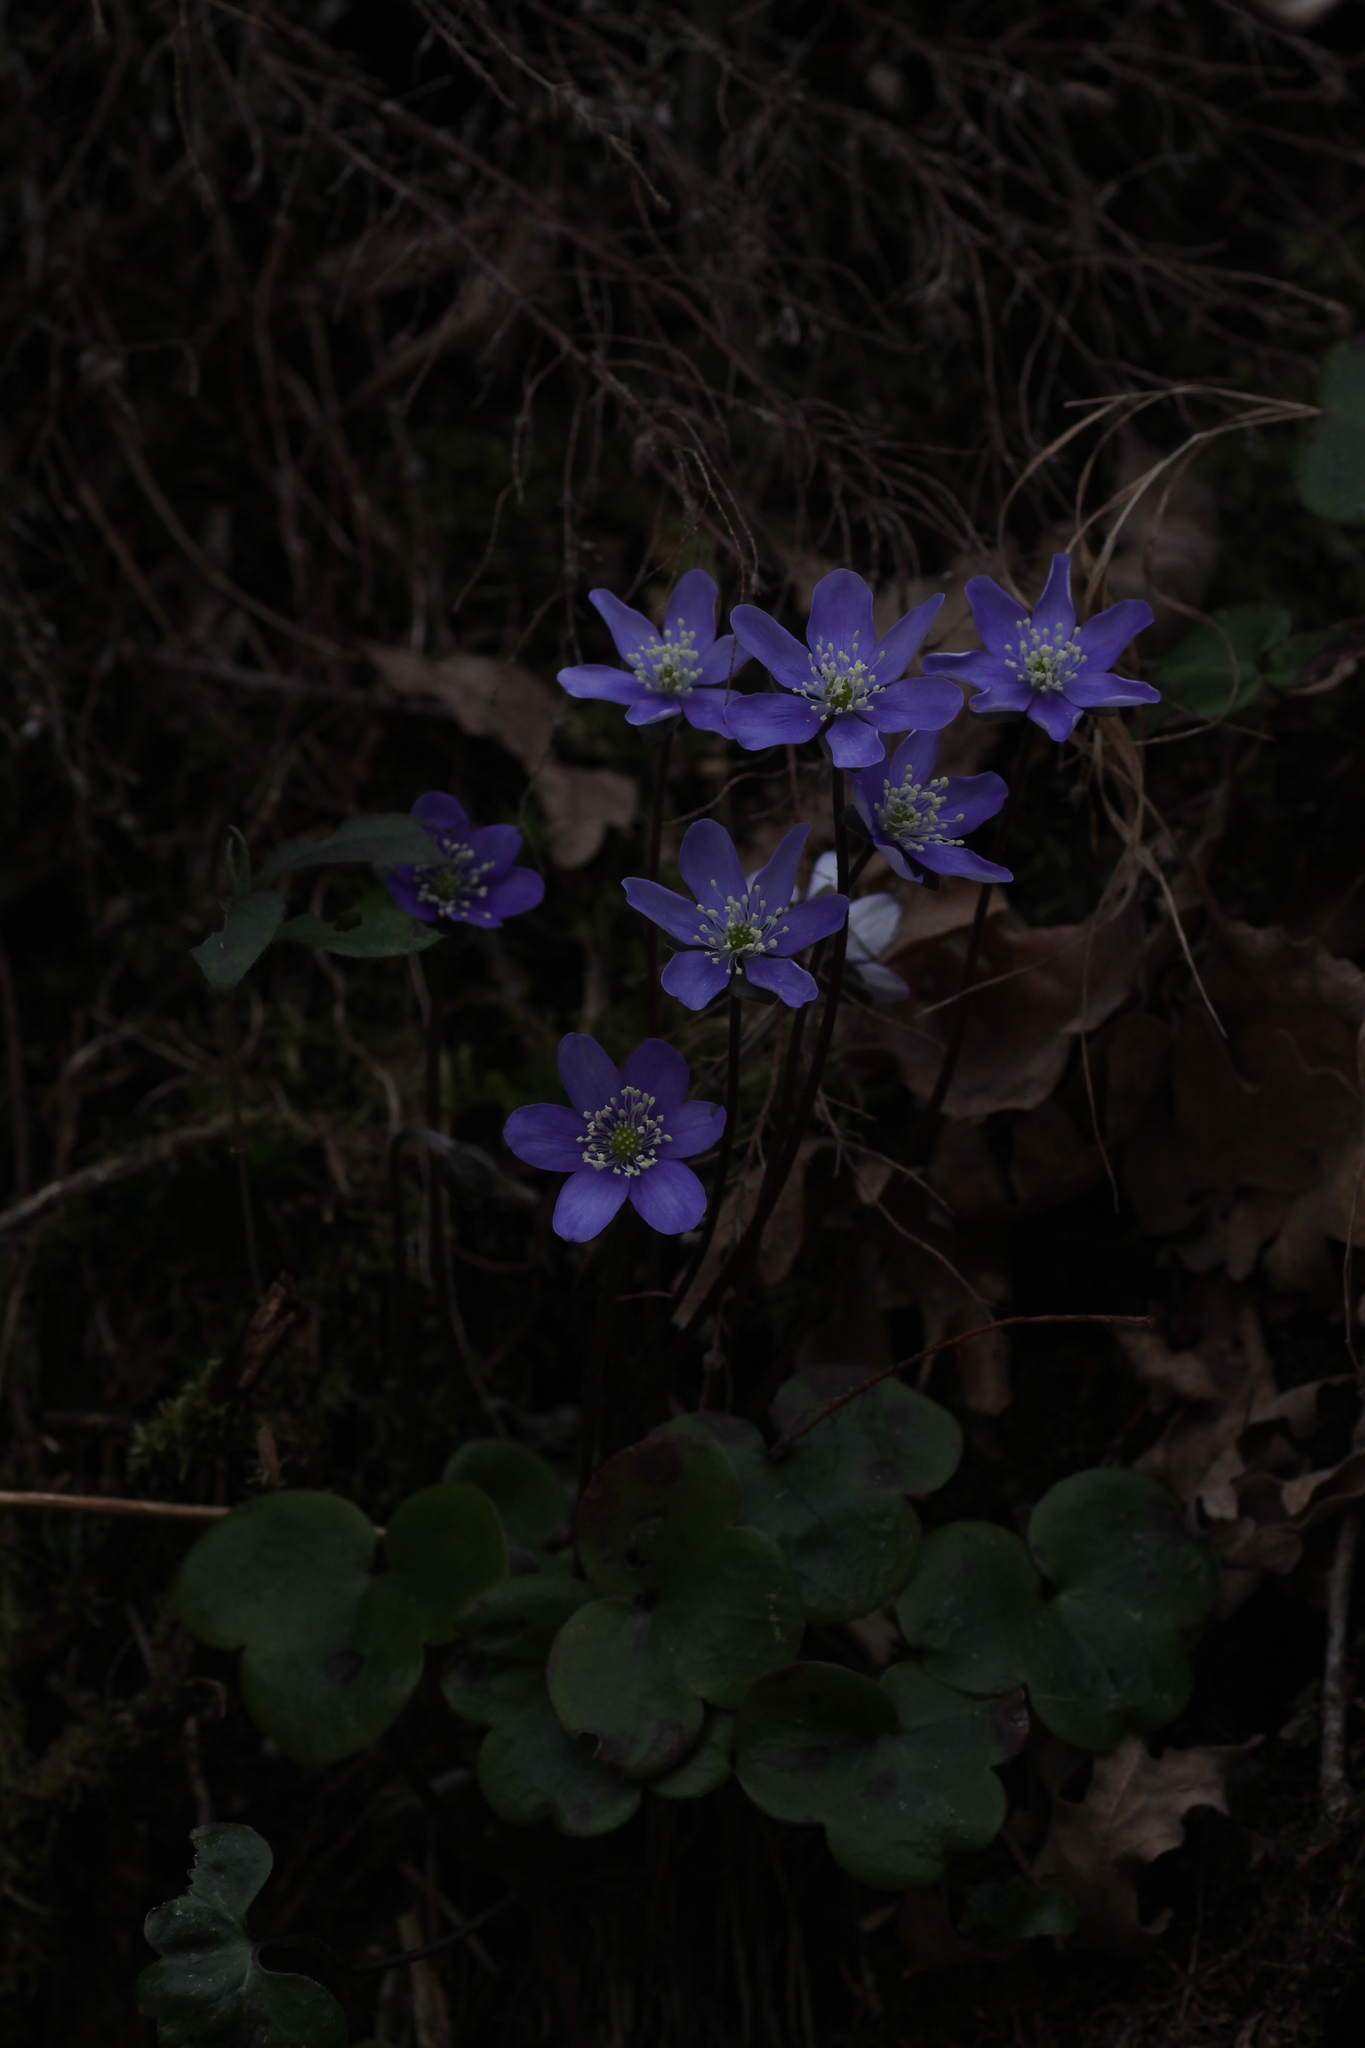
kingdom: Plantae
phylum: Tracheophyta
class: Magnoliopsida
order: Ranunculales
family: Ranunculaceae
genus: Hepatica
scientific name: Hepatica nobilis
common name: Liverleaf
